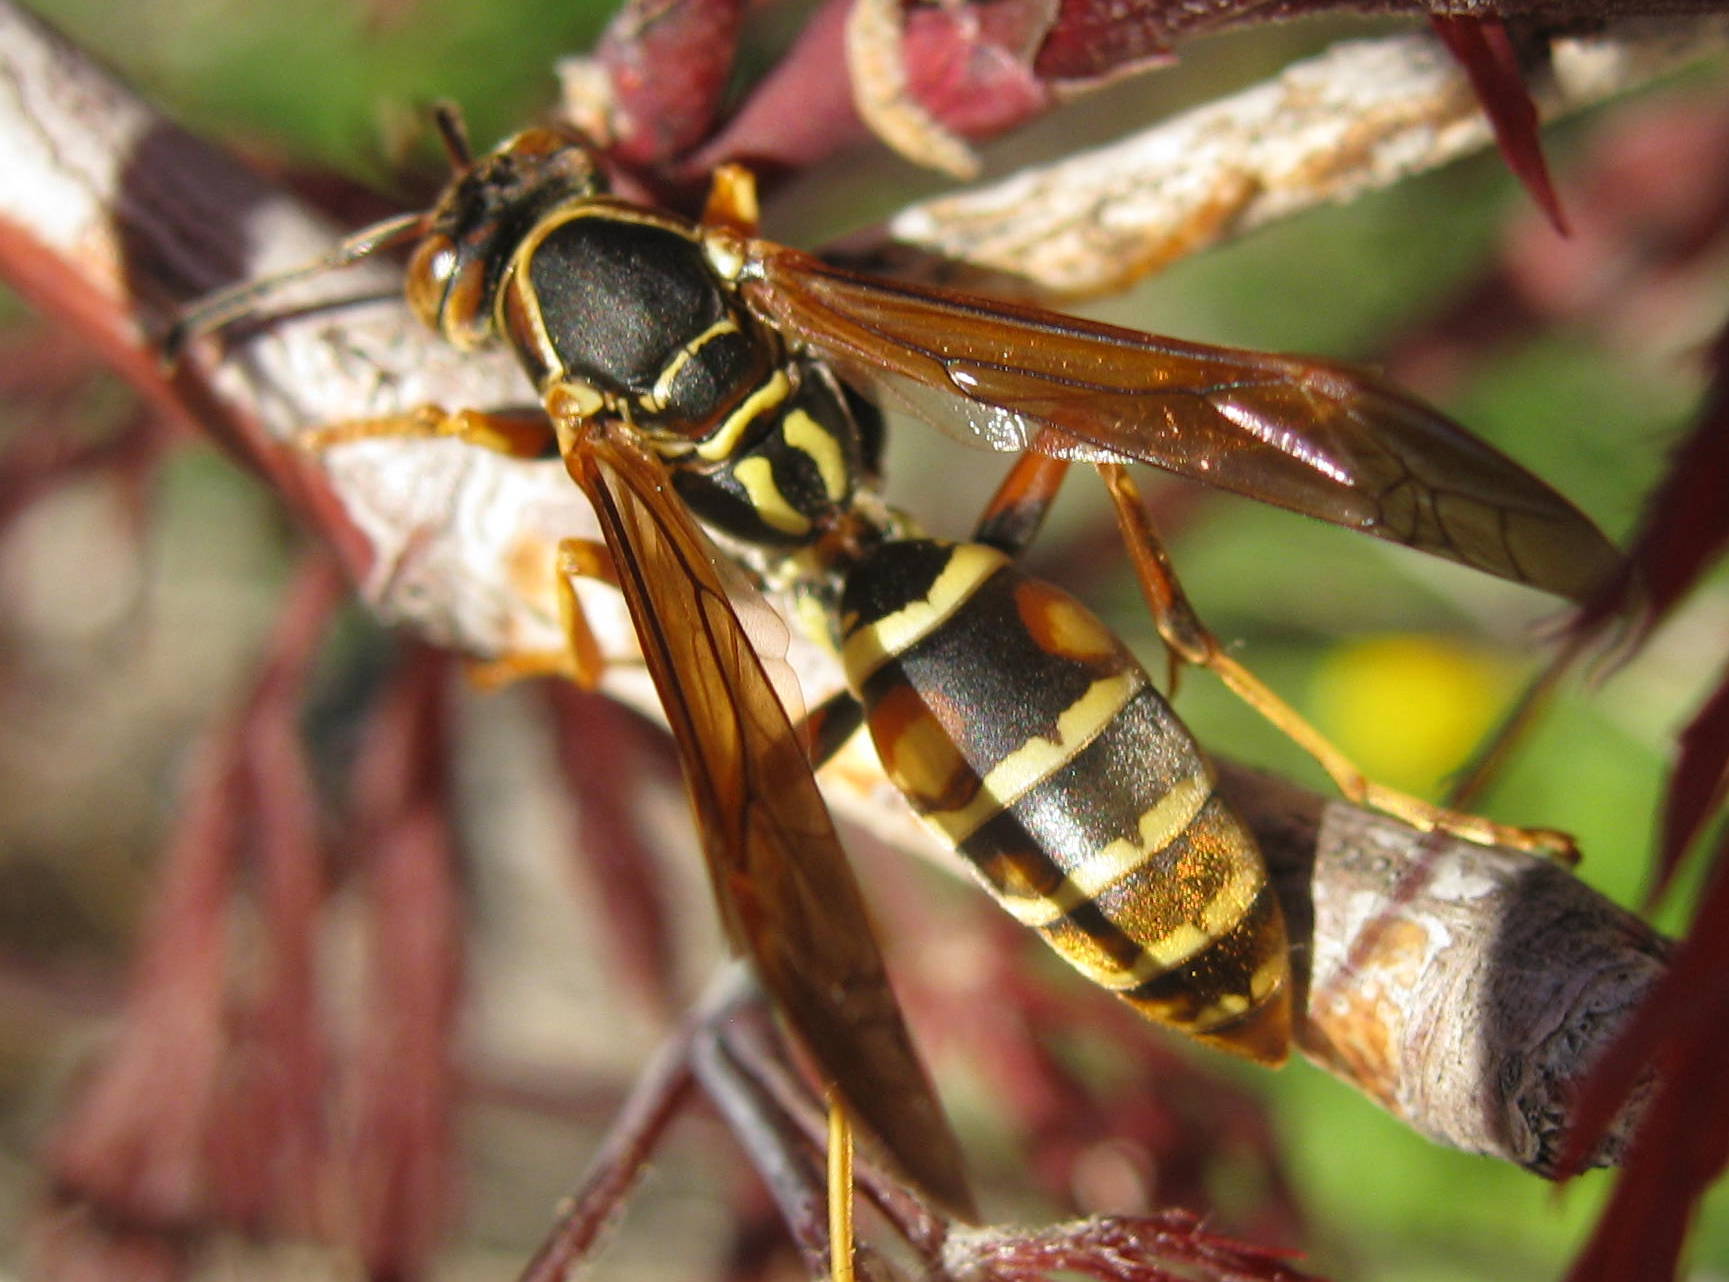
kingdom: Animalia
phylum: Arthropoda
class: Insecta
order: Hymenoptera
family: Eumenidae
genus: Polistes
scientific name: Polistes fuscatus
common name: Dark paper wasp
